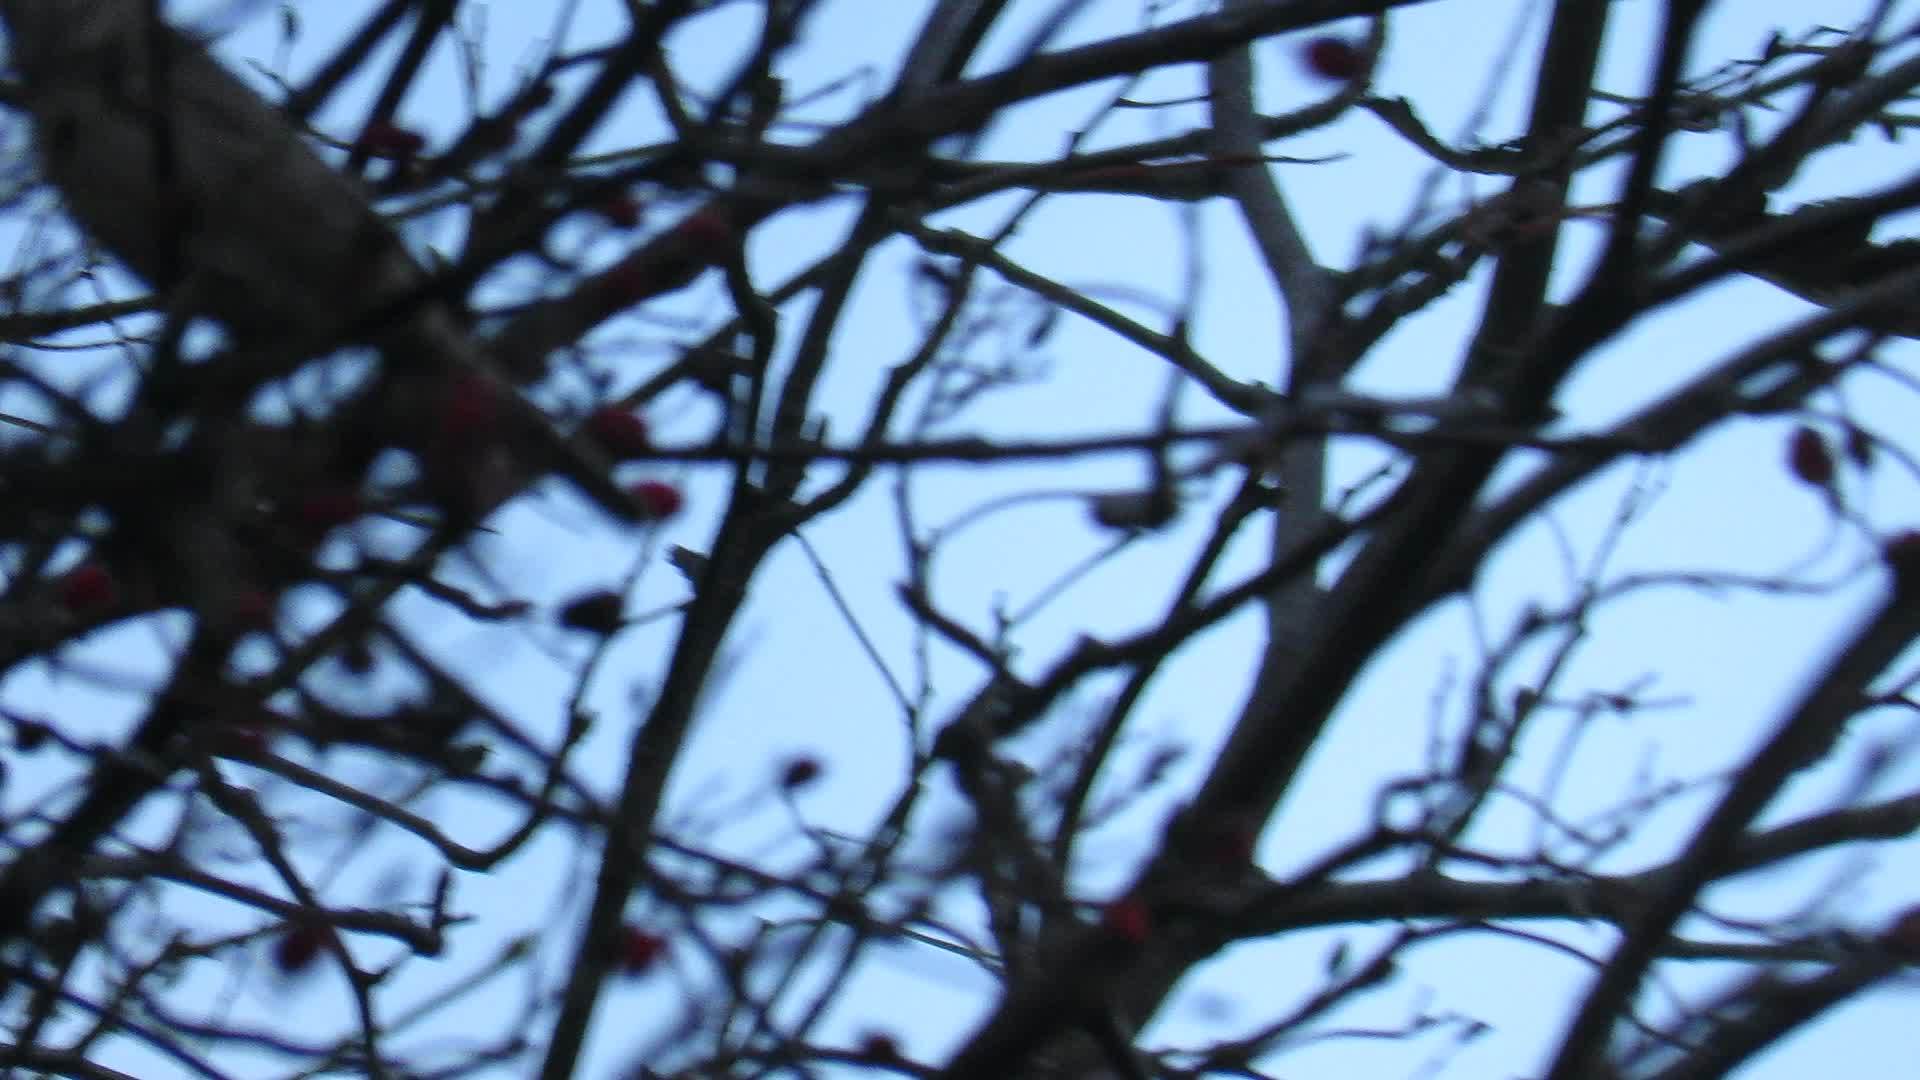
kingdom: Animalia
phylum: Chordata
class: Aves
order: Passeriformes
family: Sylviidae
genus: Sylvia
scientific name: Sylvia nisoria
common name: Barred warbler
